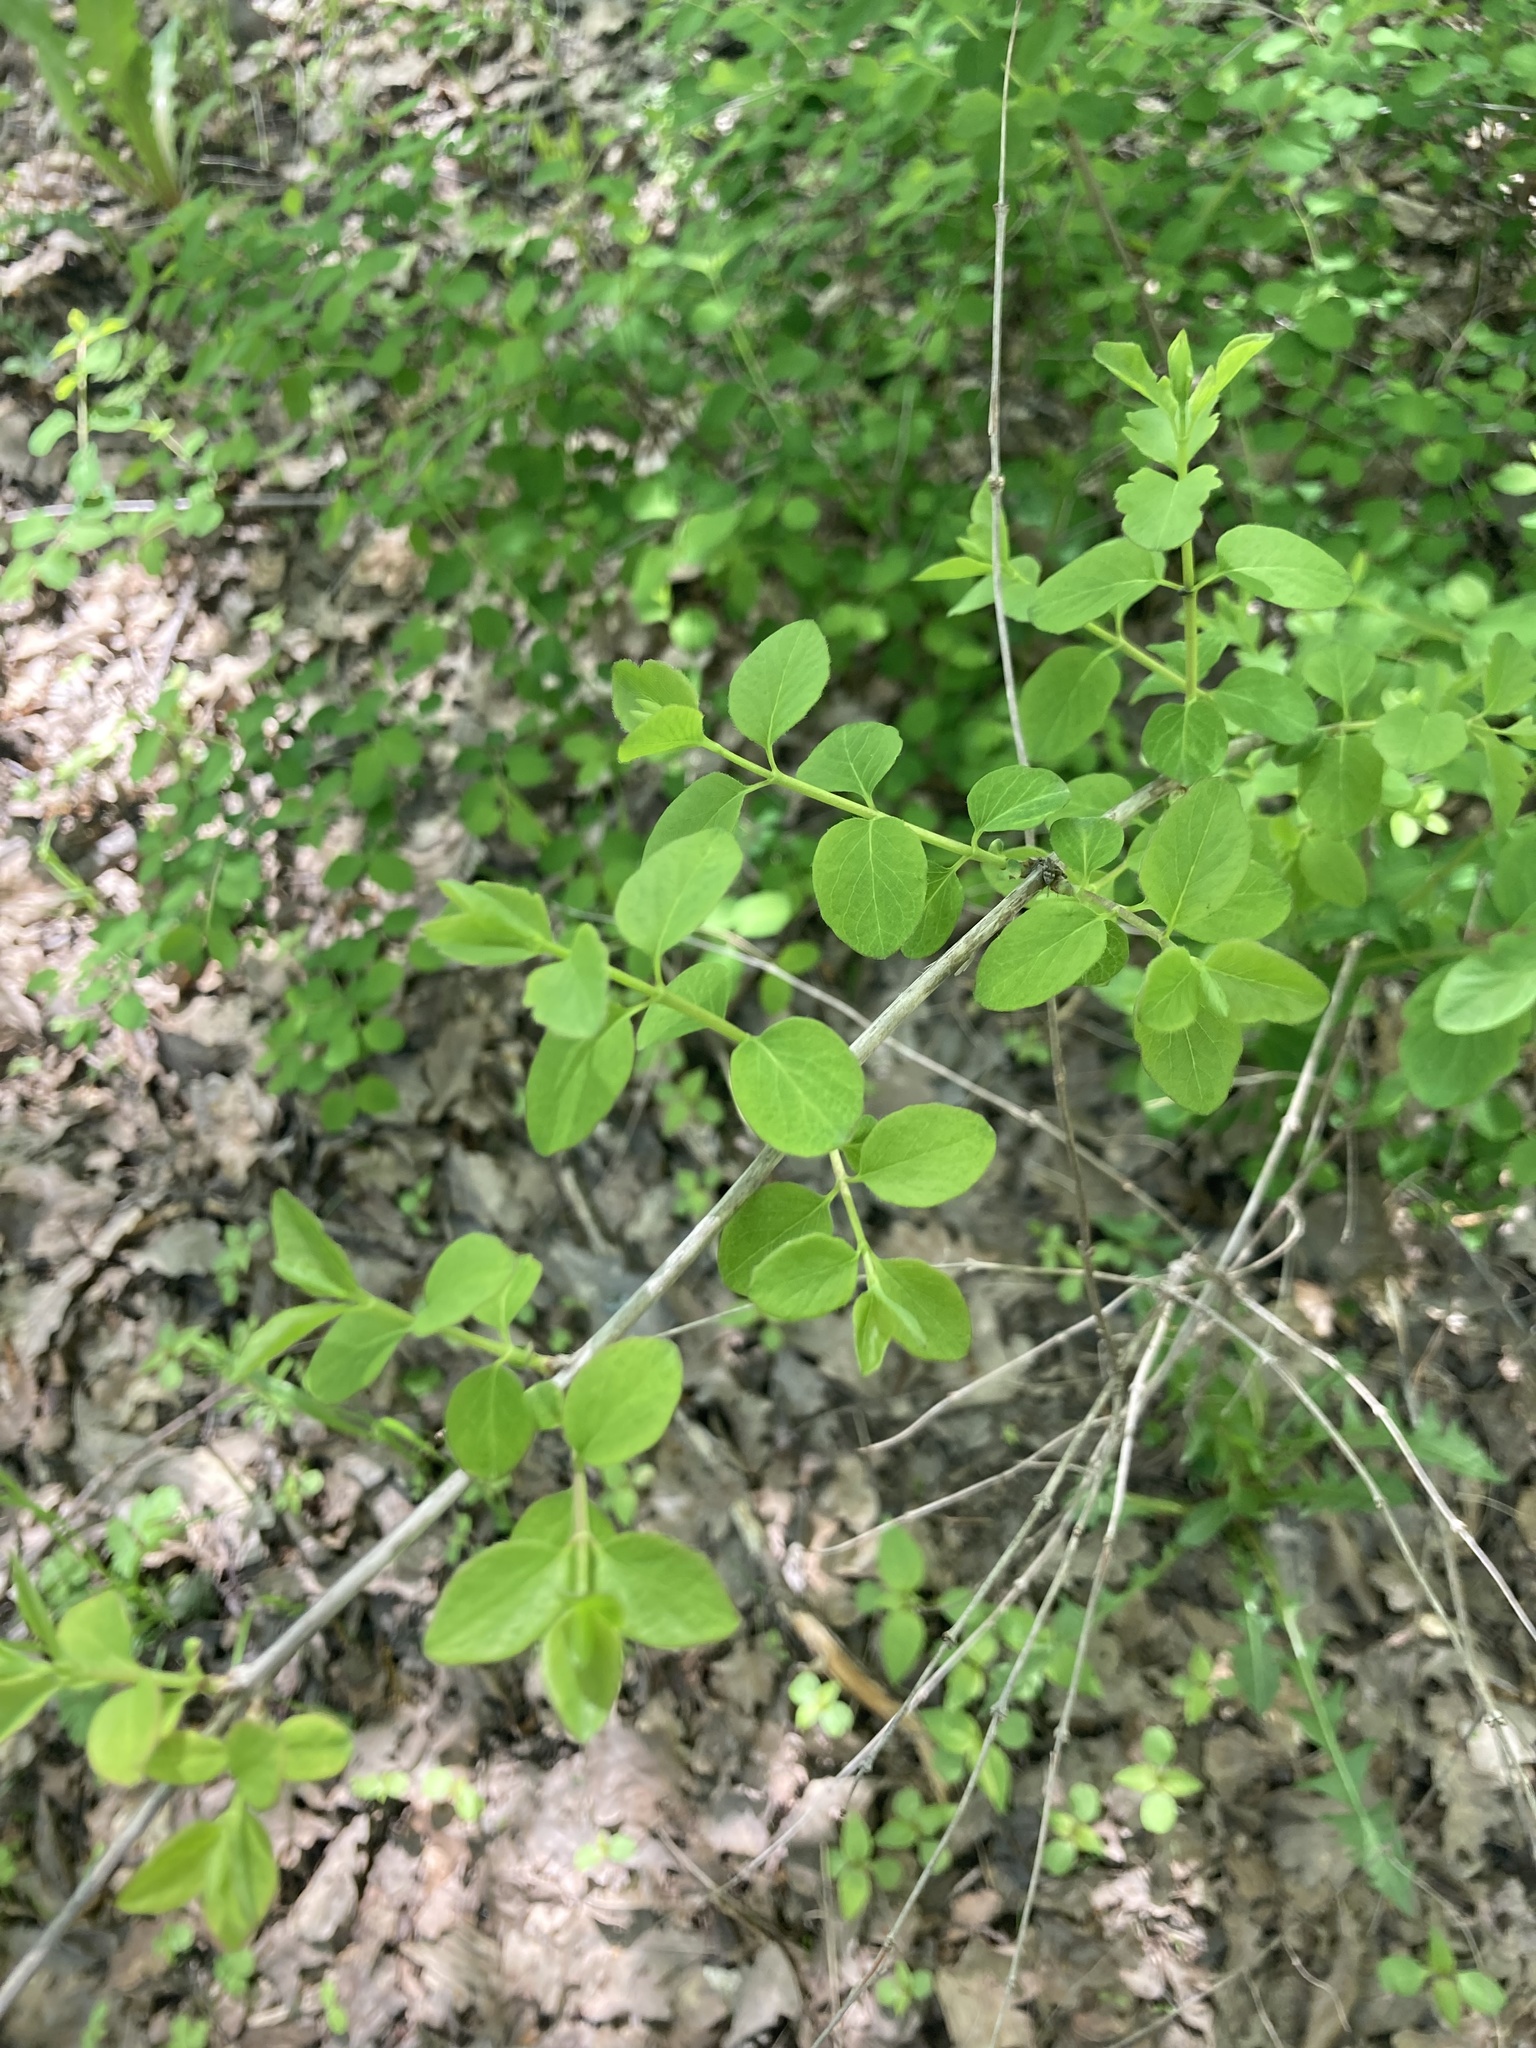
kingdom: Plantae
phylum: Tracheophyta
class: Magnoliopsida
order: Dipsacales
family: Caprifoliaceae
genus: Symphoricarpos
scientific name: Symphoricarpos albus
